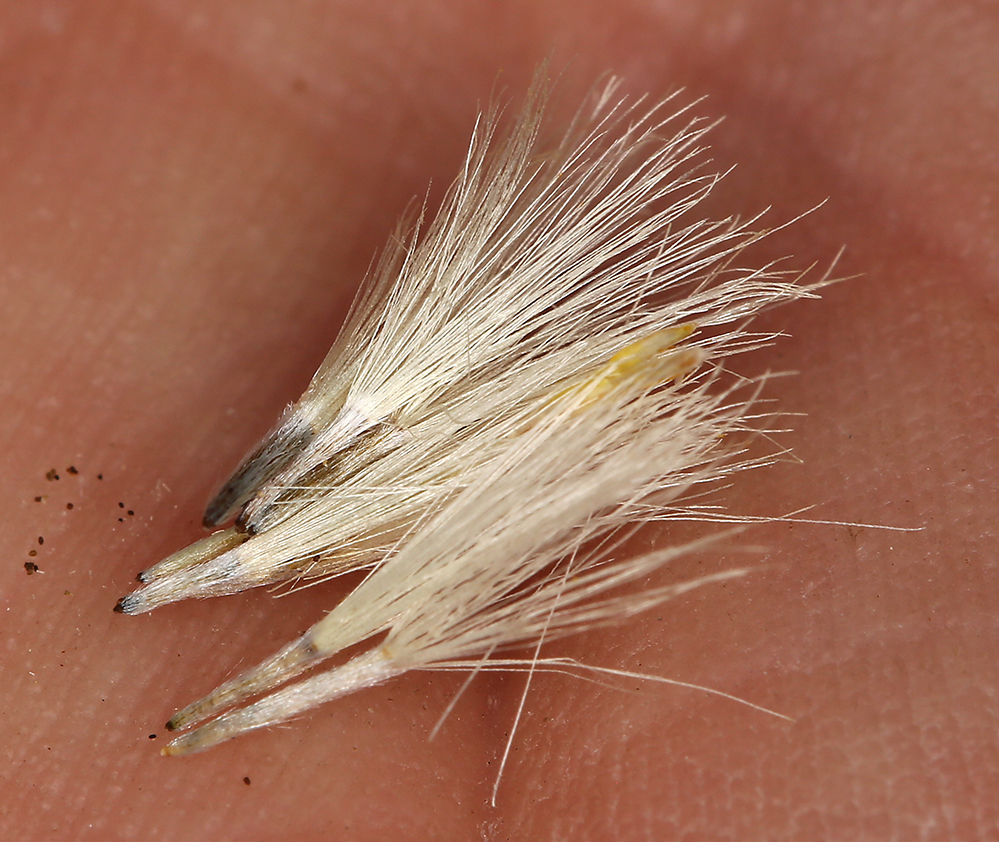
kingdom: Plantae
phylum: Tracheophyta
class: Magnoliopsida
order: Asterales
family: Asteraceae
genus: Ericameria
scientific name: Ericameria nauseosa
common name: Rubber rabbitbrush
